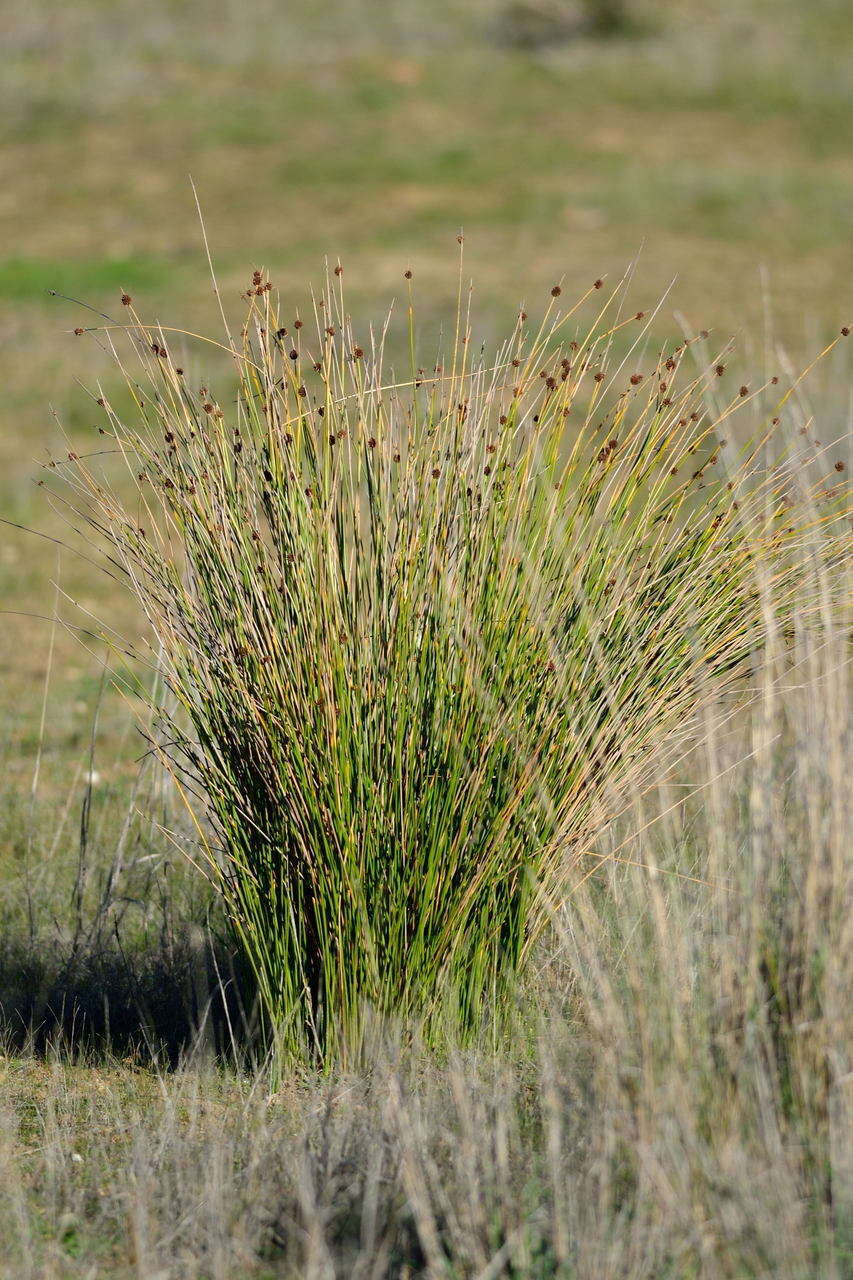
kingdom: Plantae
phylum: Tracheophyta
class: Liliopsida
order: Poales
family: Cyperaceae
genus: Ficinia
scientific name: Ficinia nodosa
